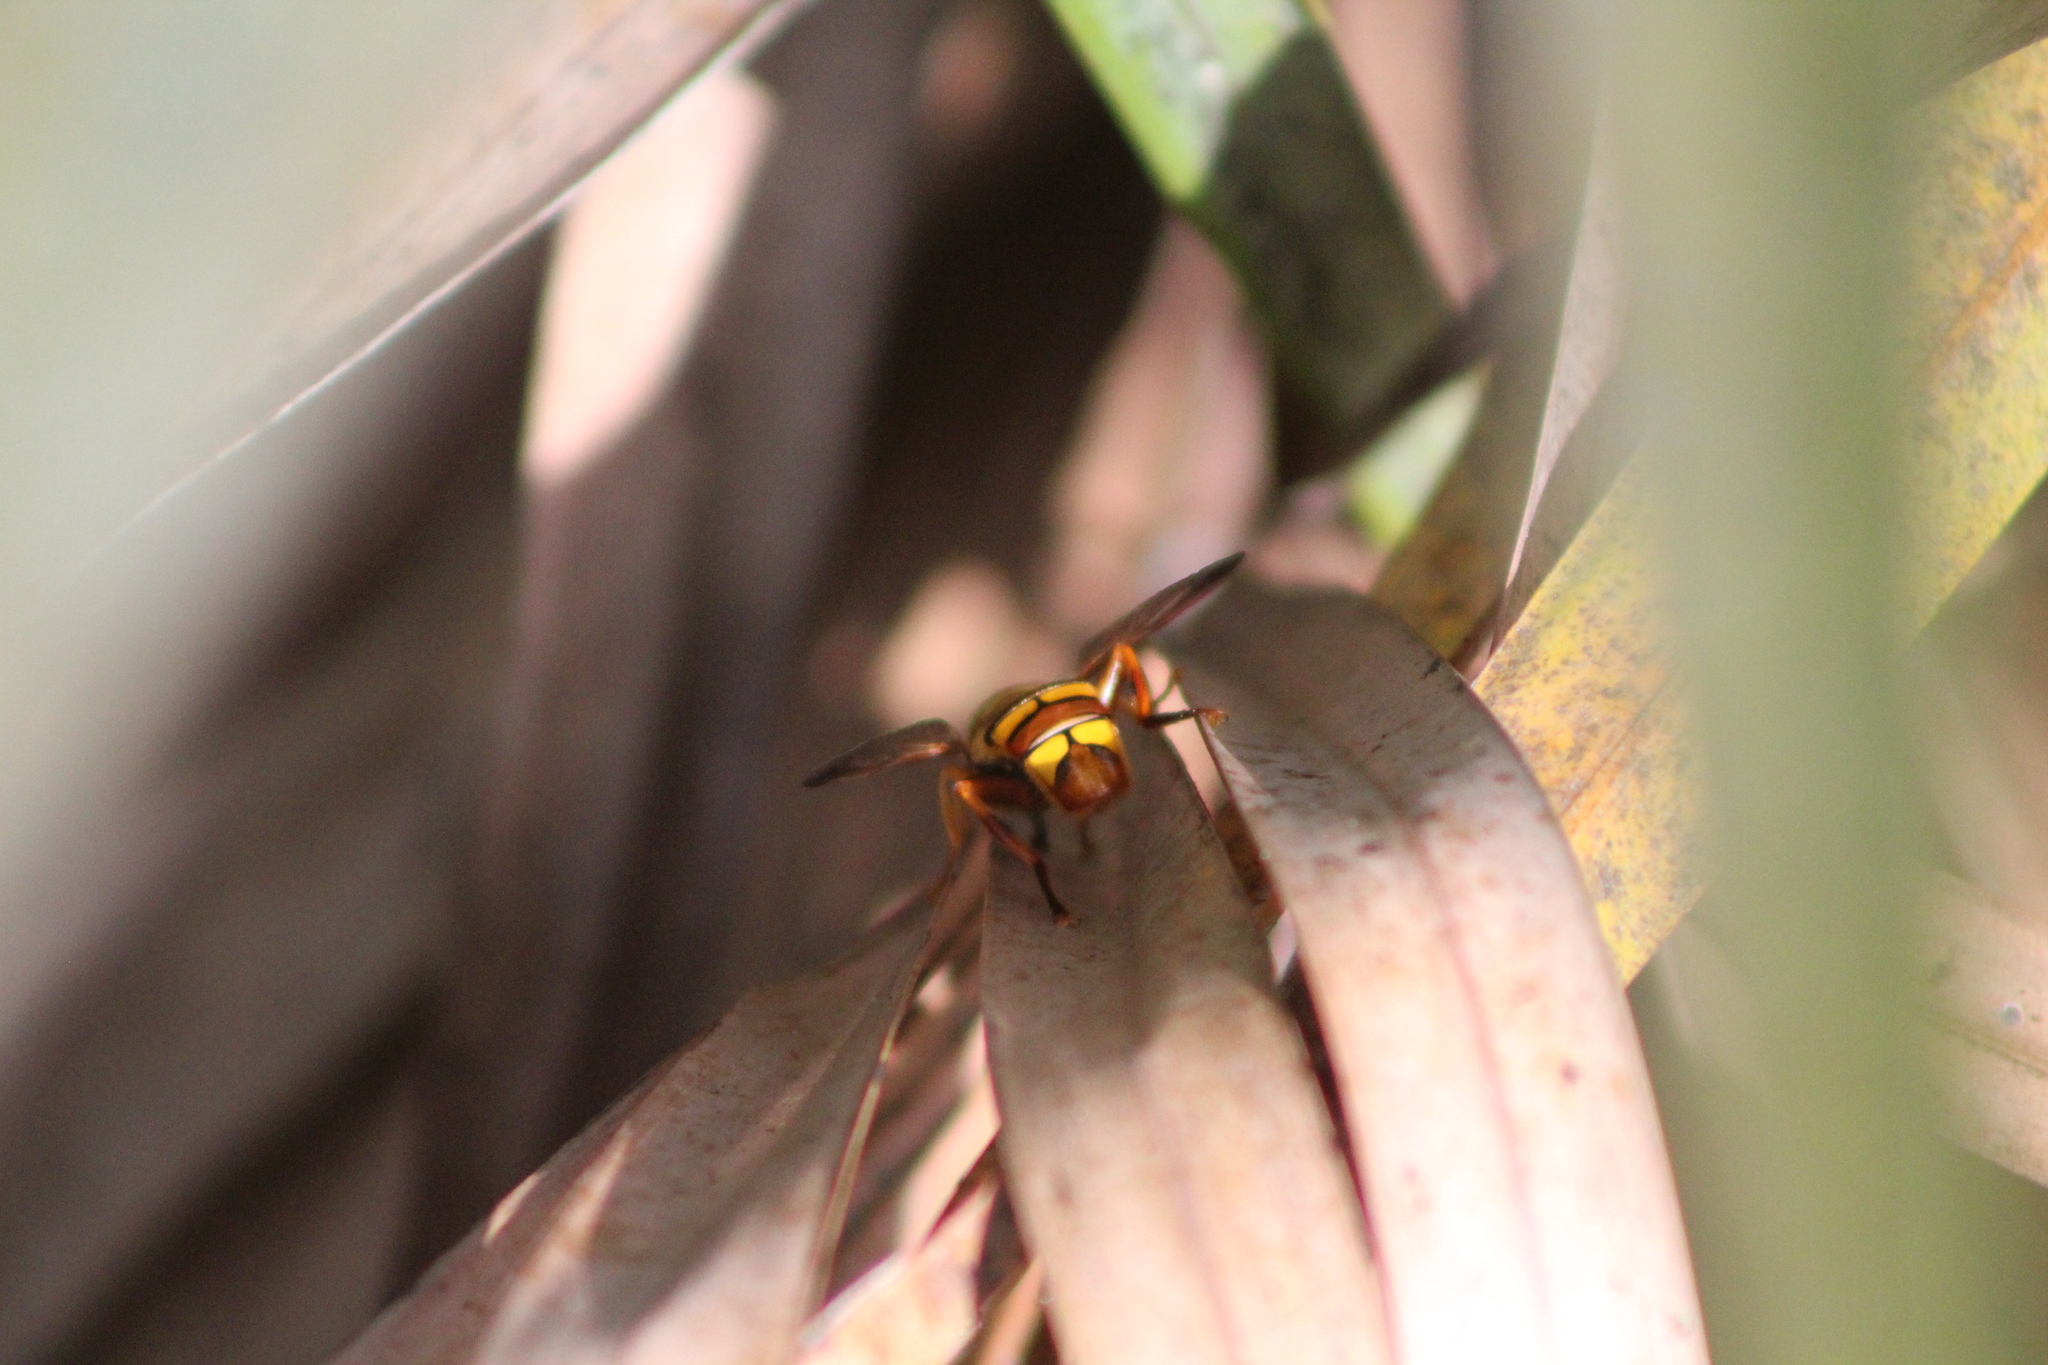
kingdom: Animalia
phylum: Arthropoda
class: Insecta
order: Diptera
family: Syrphidae
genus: Milesia
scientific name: Milesia
